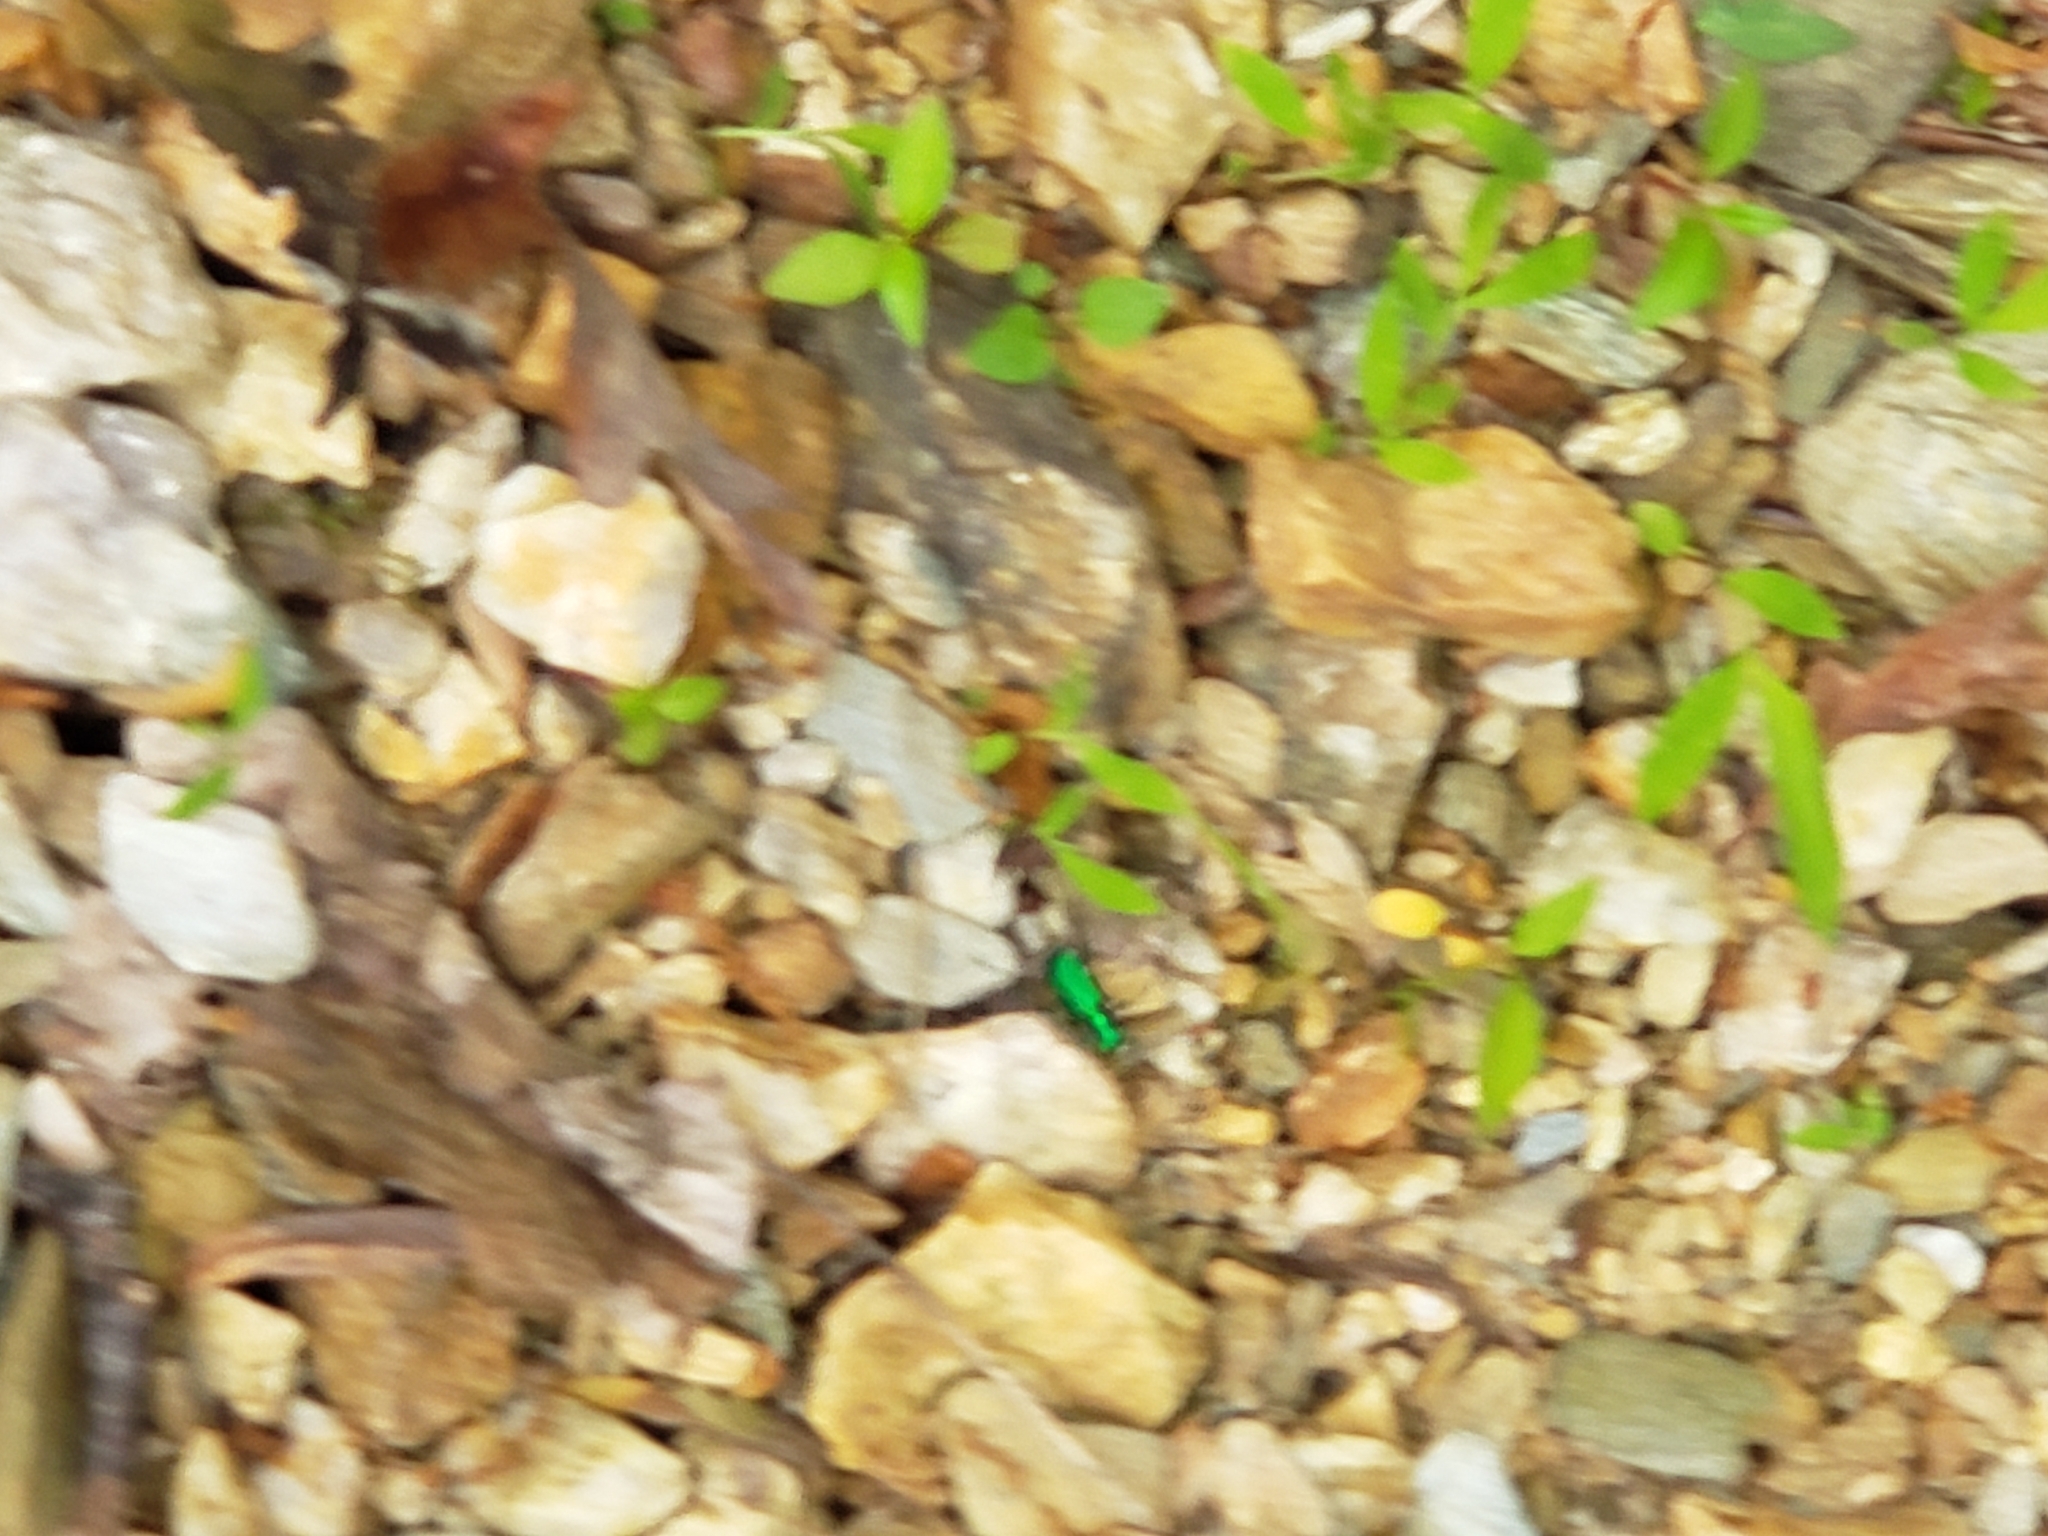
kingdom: Animalia
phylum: Arthropoda
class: Insecta
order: Coleoptera
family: Carabidae
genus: Cicindela
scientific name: Cicindela sexguttata
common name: Six-spotted tiger beetle
